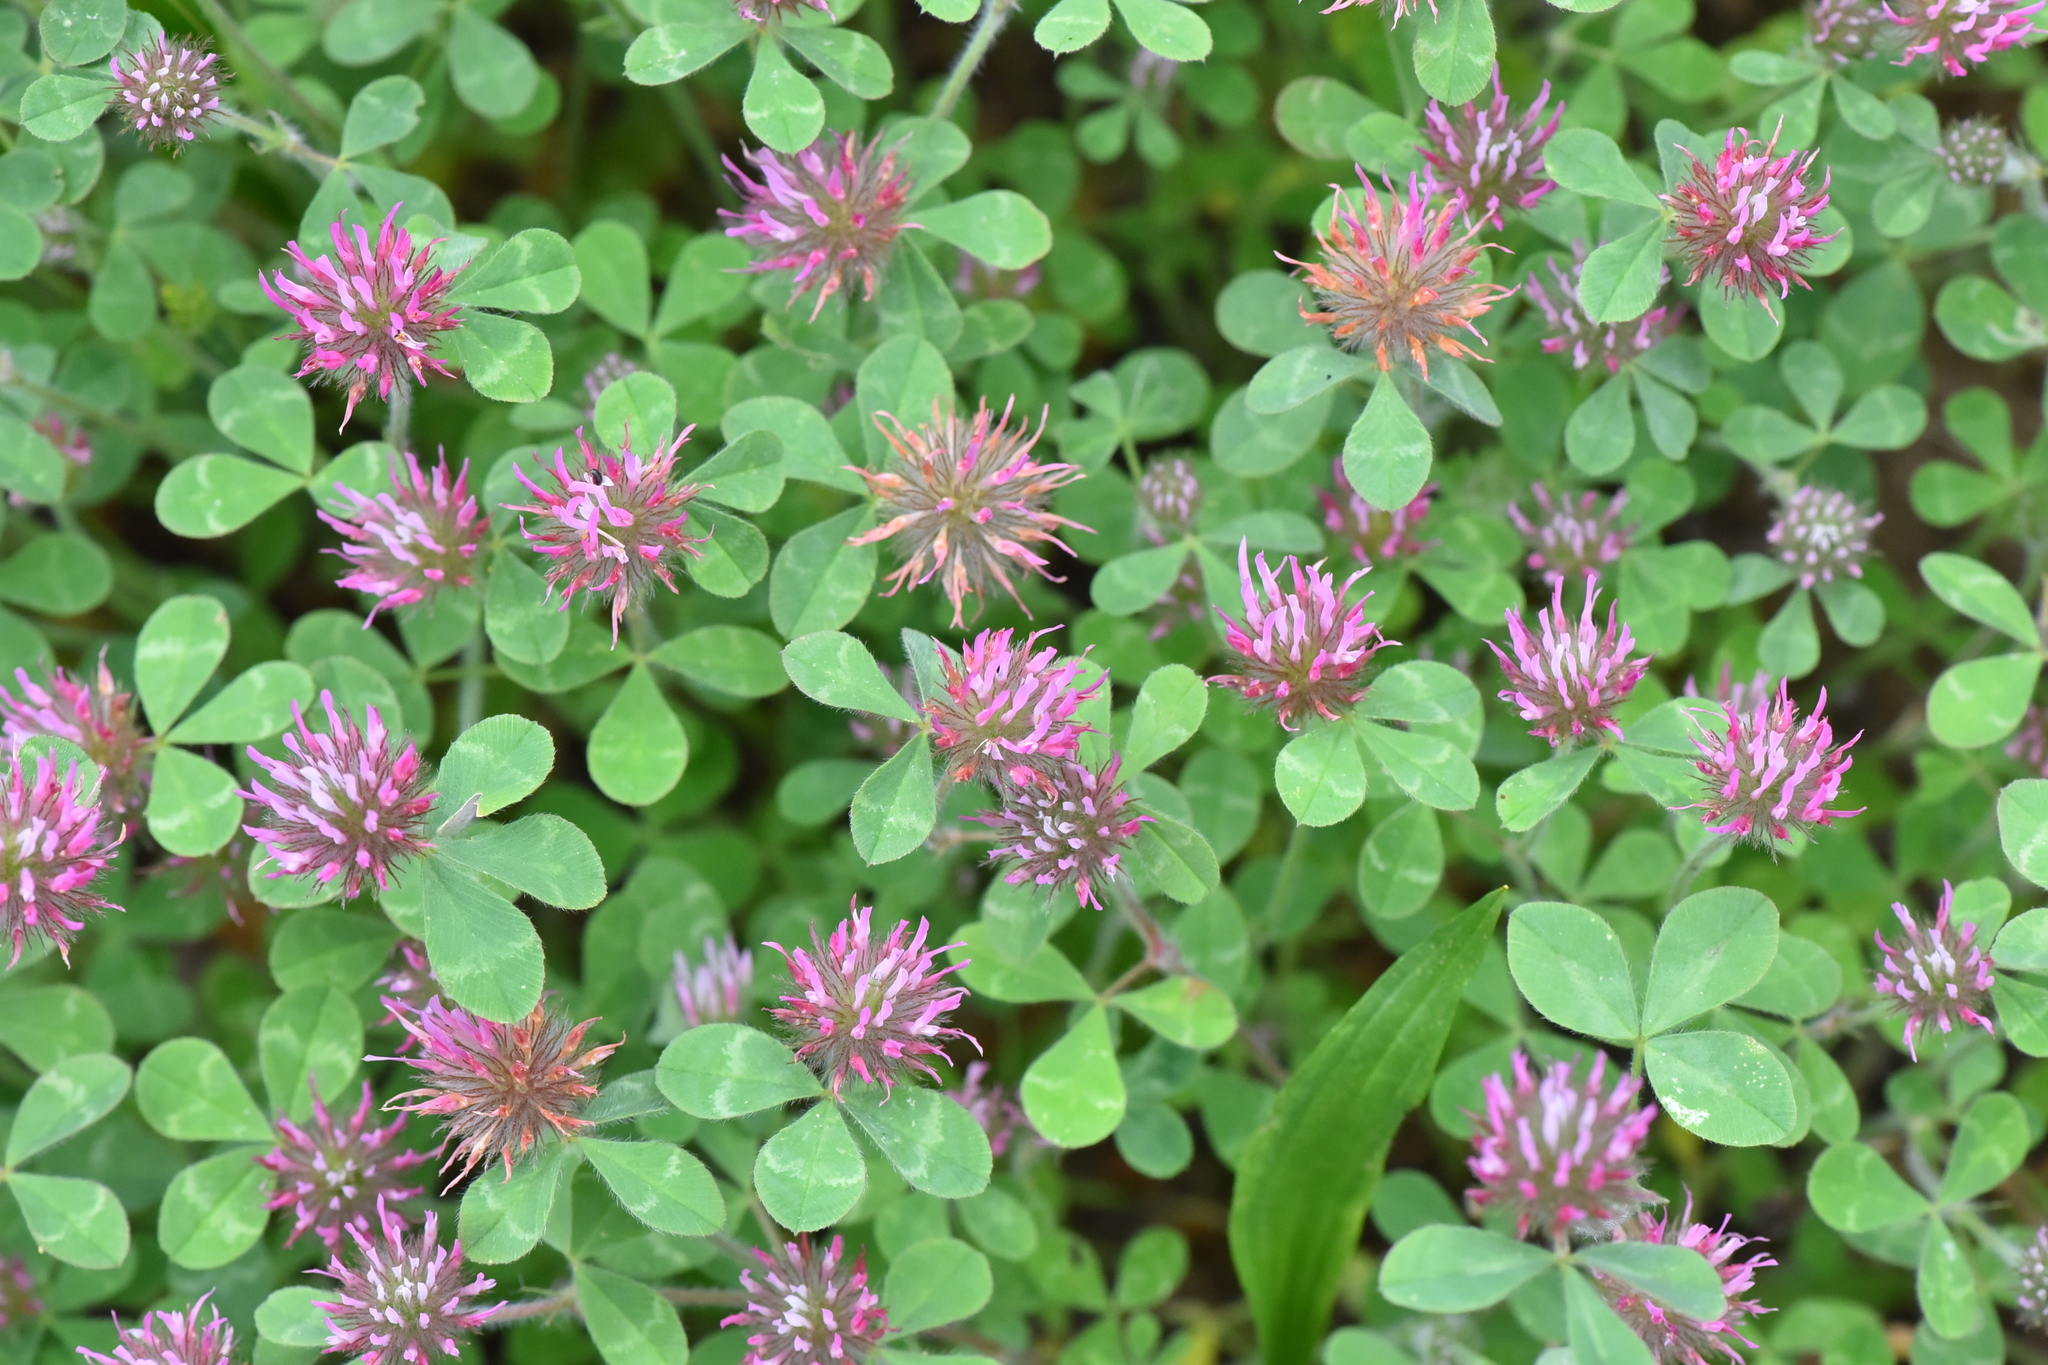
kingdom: Plantae
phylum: Tracheophyta
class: Magnoliopsida
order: Fabales
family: Fabaceae
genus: Trifolium
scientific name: Trifolium hirtum
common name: Rose clover
